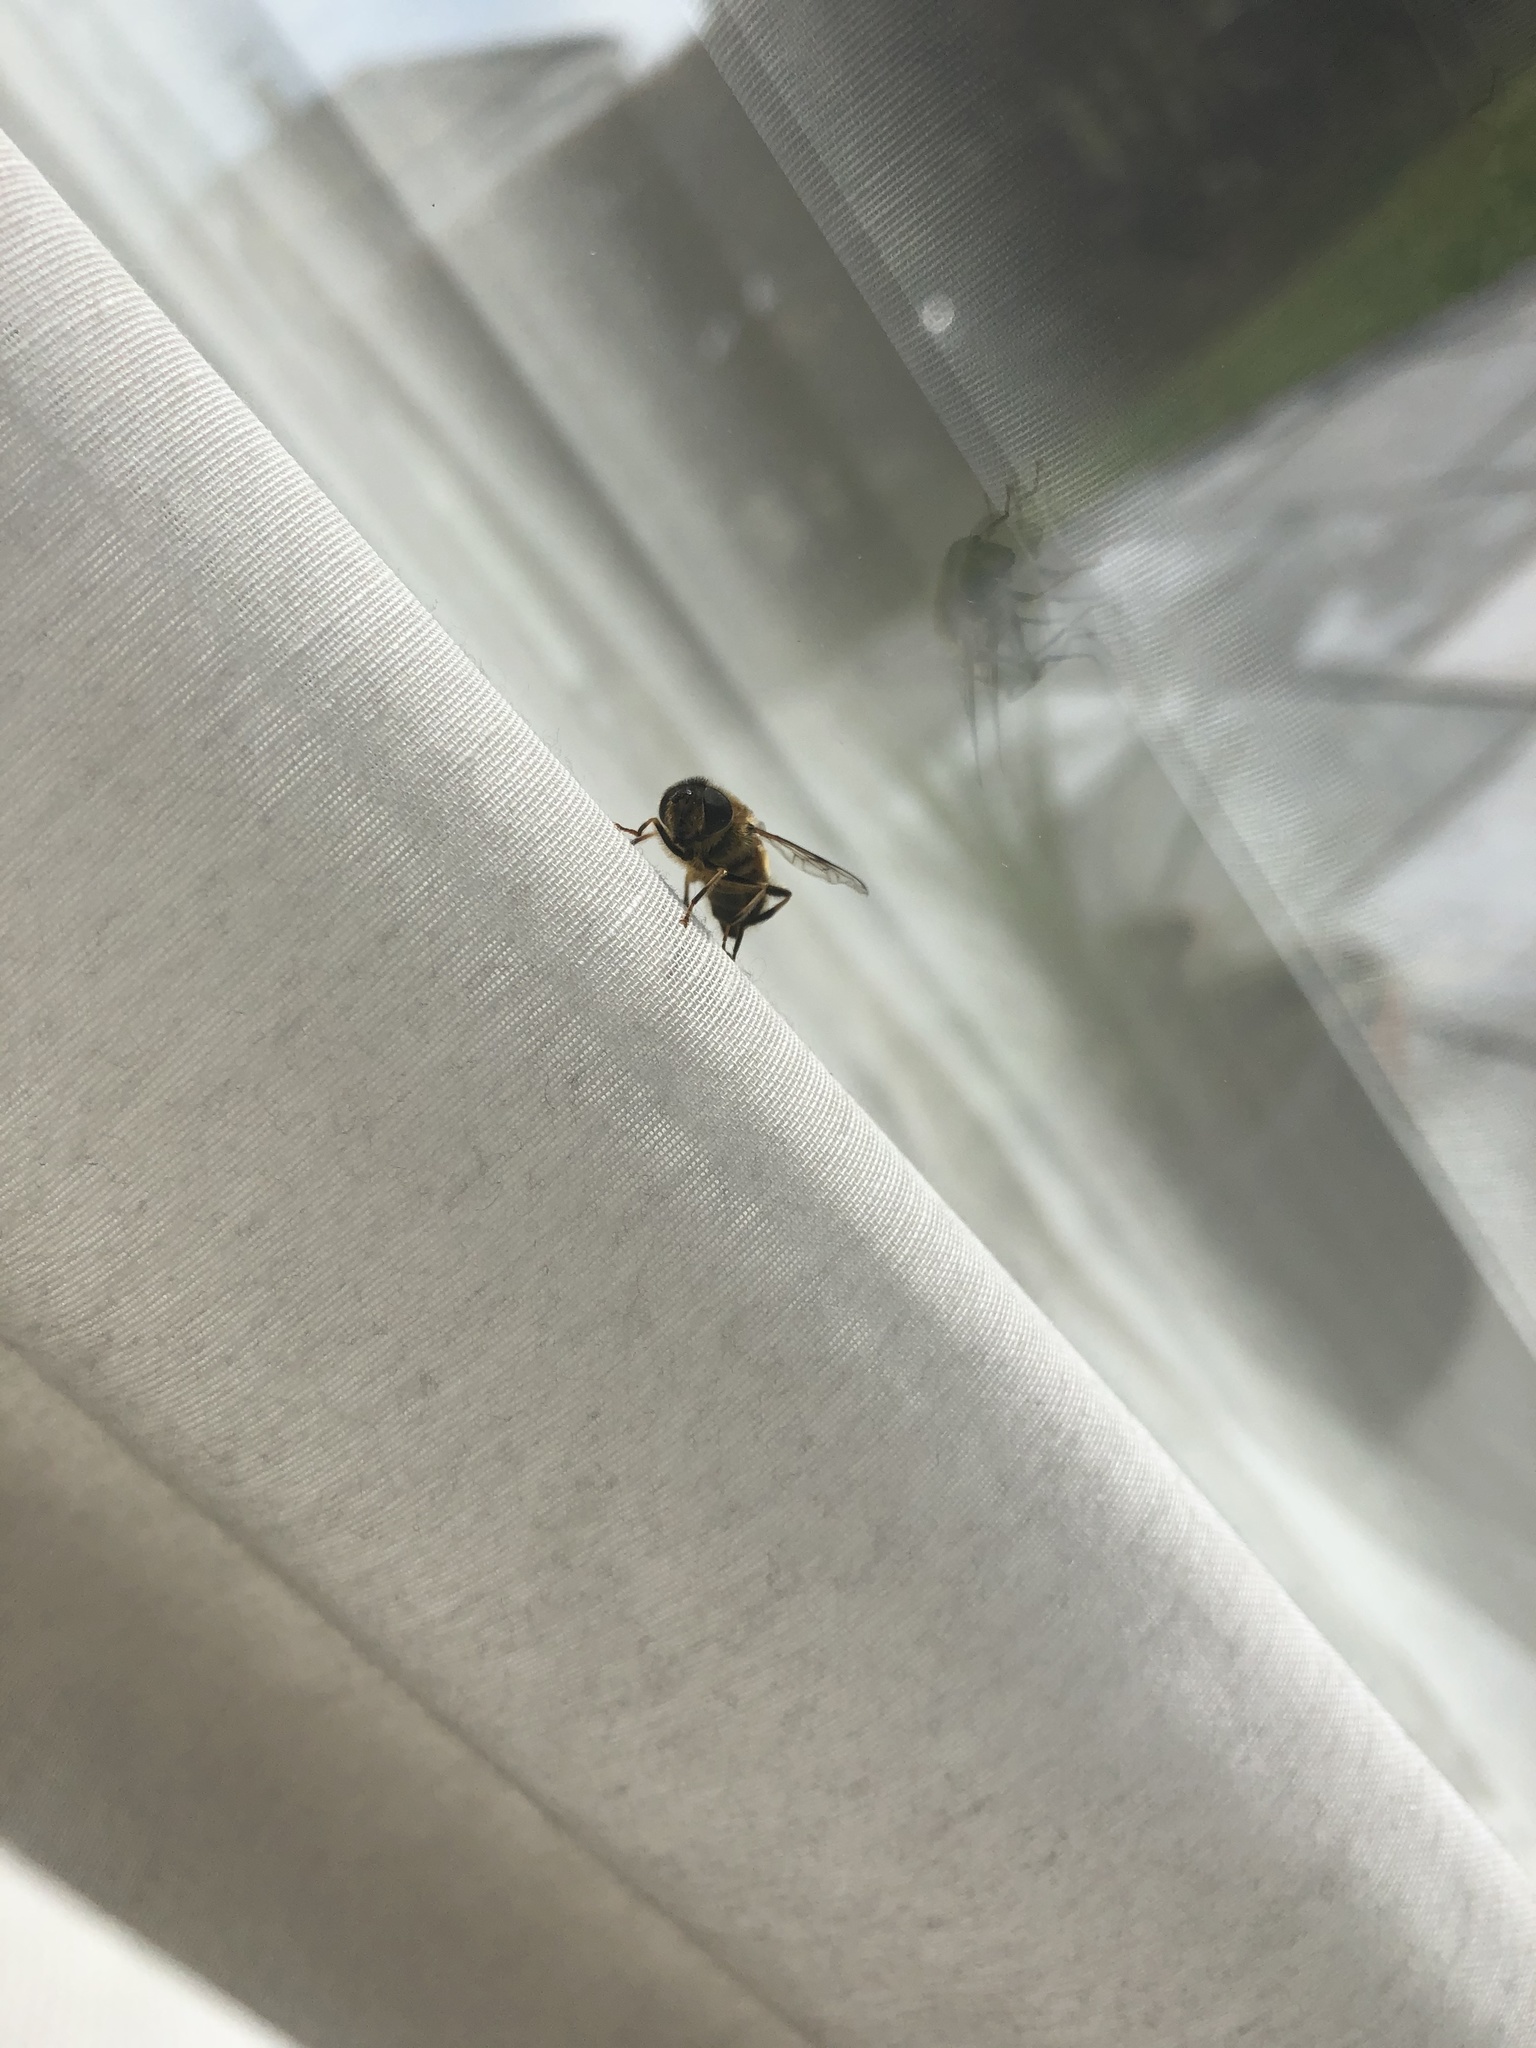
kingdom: Animalia
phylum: Arthropoda
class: Insecta
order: Diptera
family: Syrphidae
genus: Eristalis
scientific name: Eristalis pertinax
